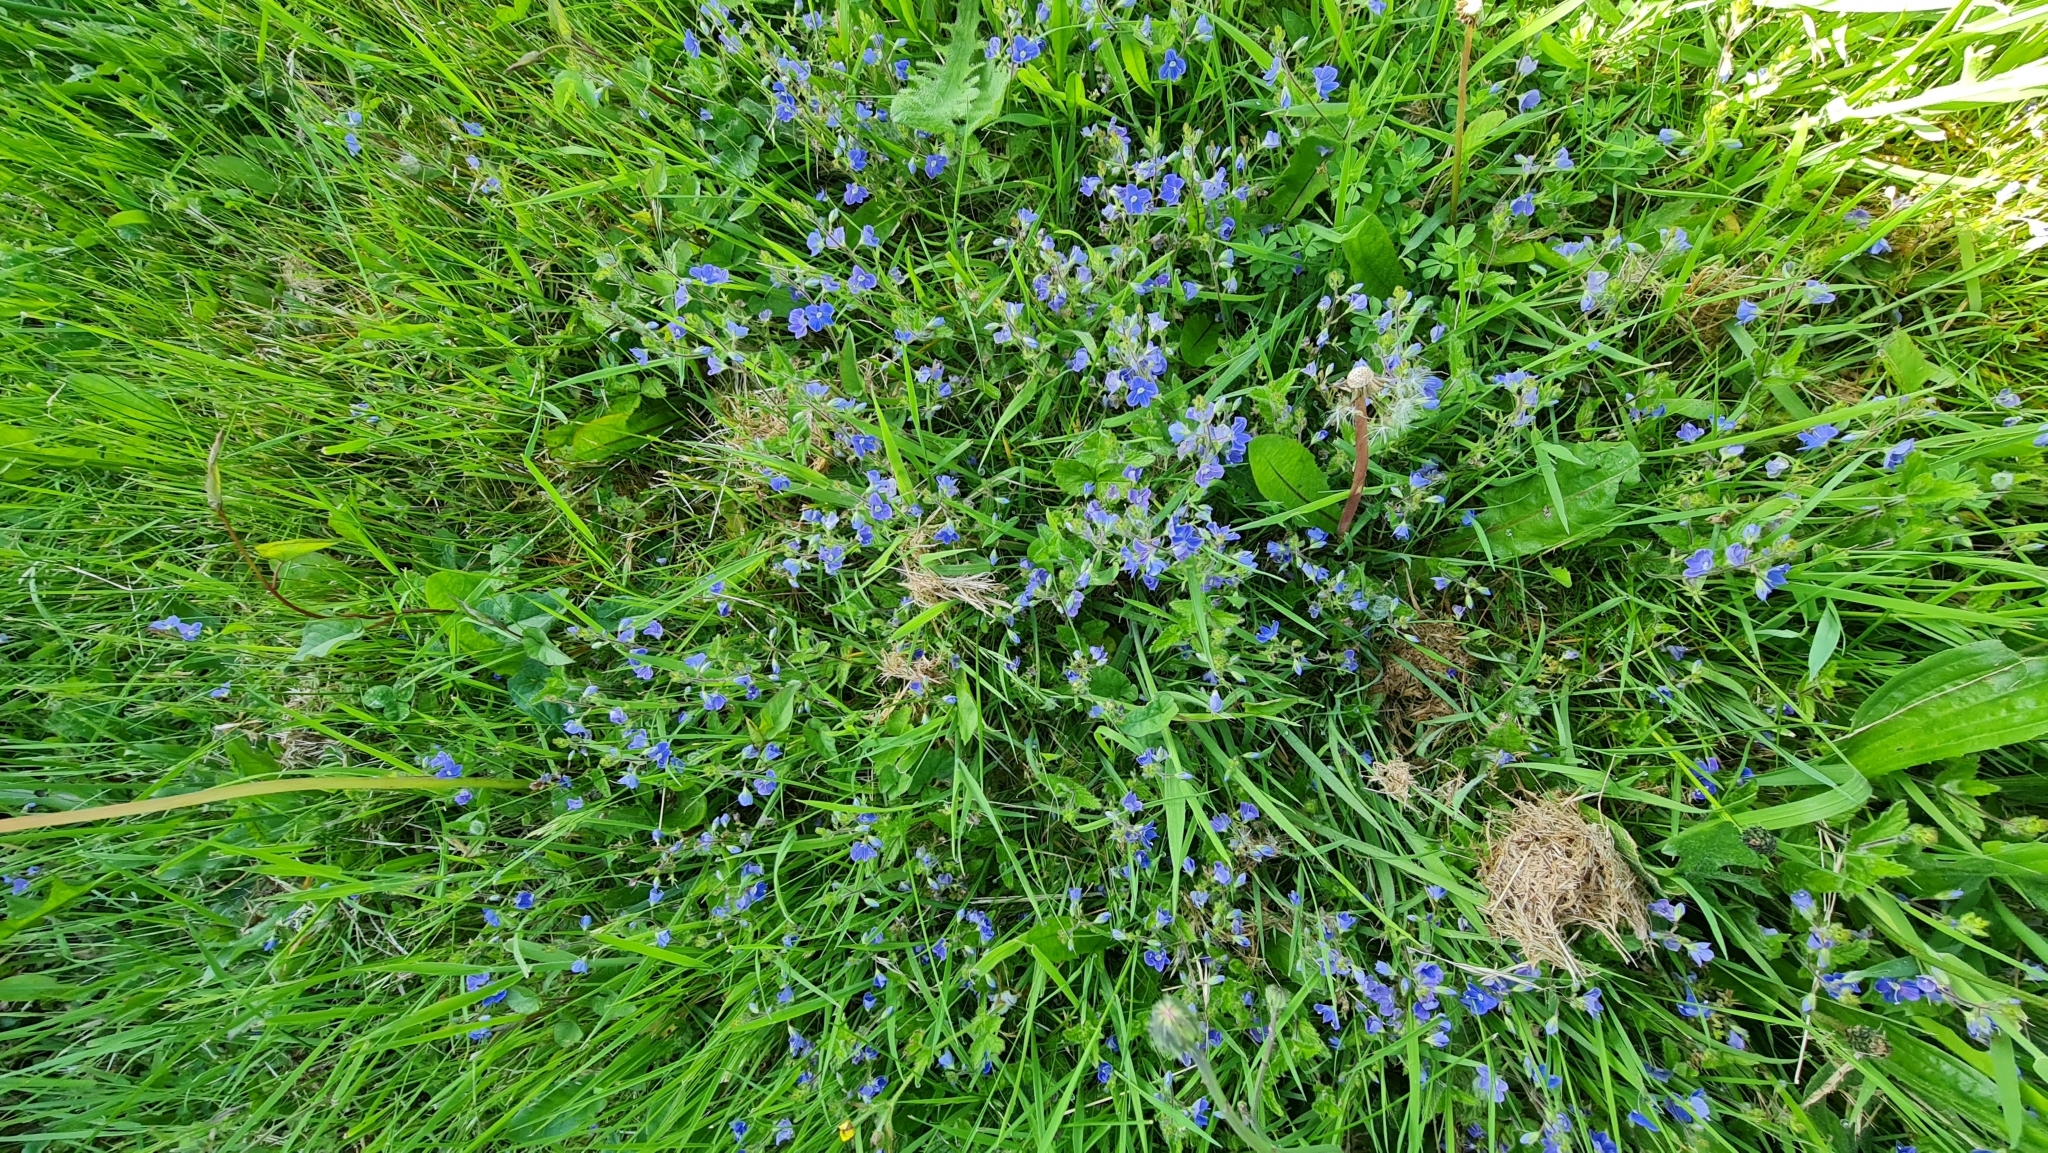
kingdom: Plantae
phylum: Tracheophyta
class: Magnoliopsida
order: Lamiales
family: Plantaginaceae
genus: Veronica
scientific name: Veronica chamaedrys
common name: Germander speedwell
